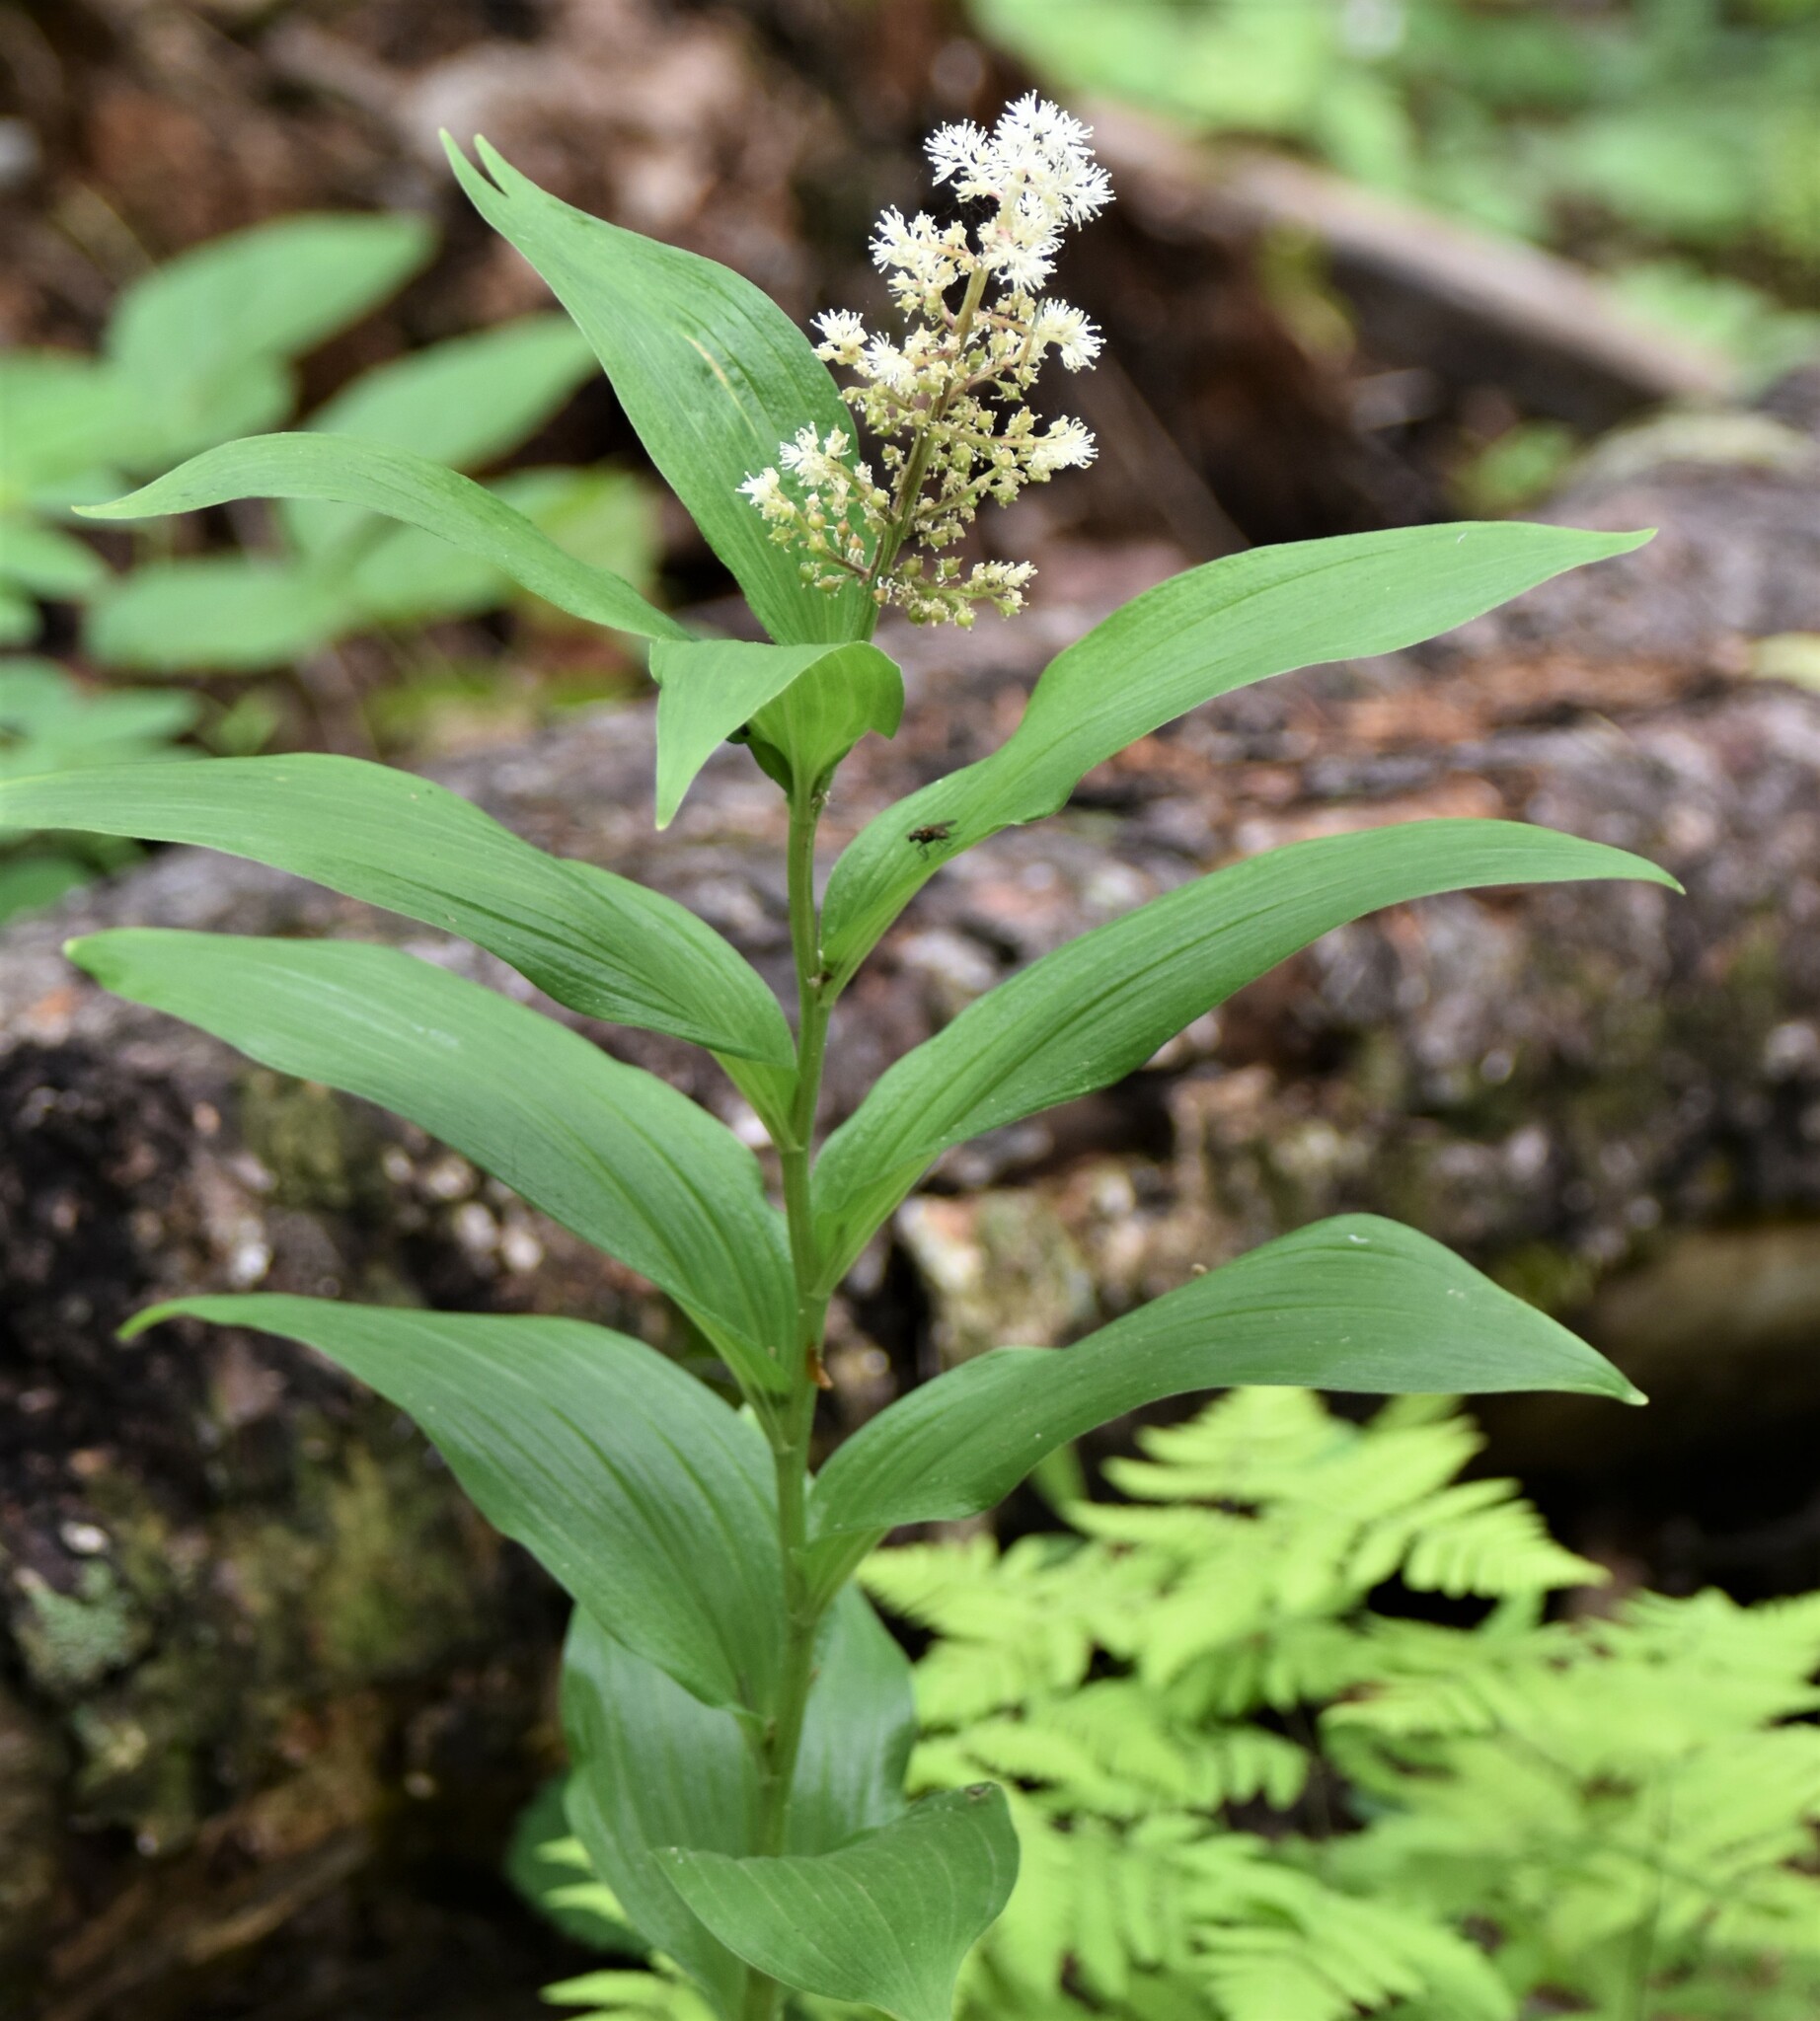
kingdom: Plantae
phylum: Tracheophyta
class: Liliopsida
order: Asparagales
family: Asparagaceae
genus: Maianthemum
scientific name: Maianthemum racemosum
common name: False spikenard
